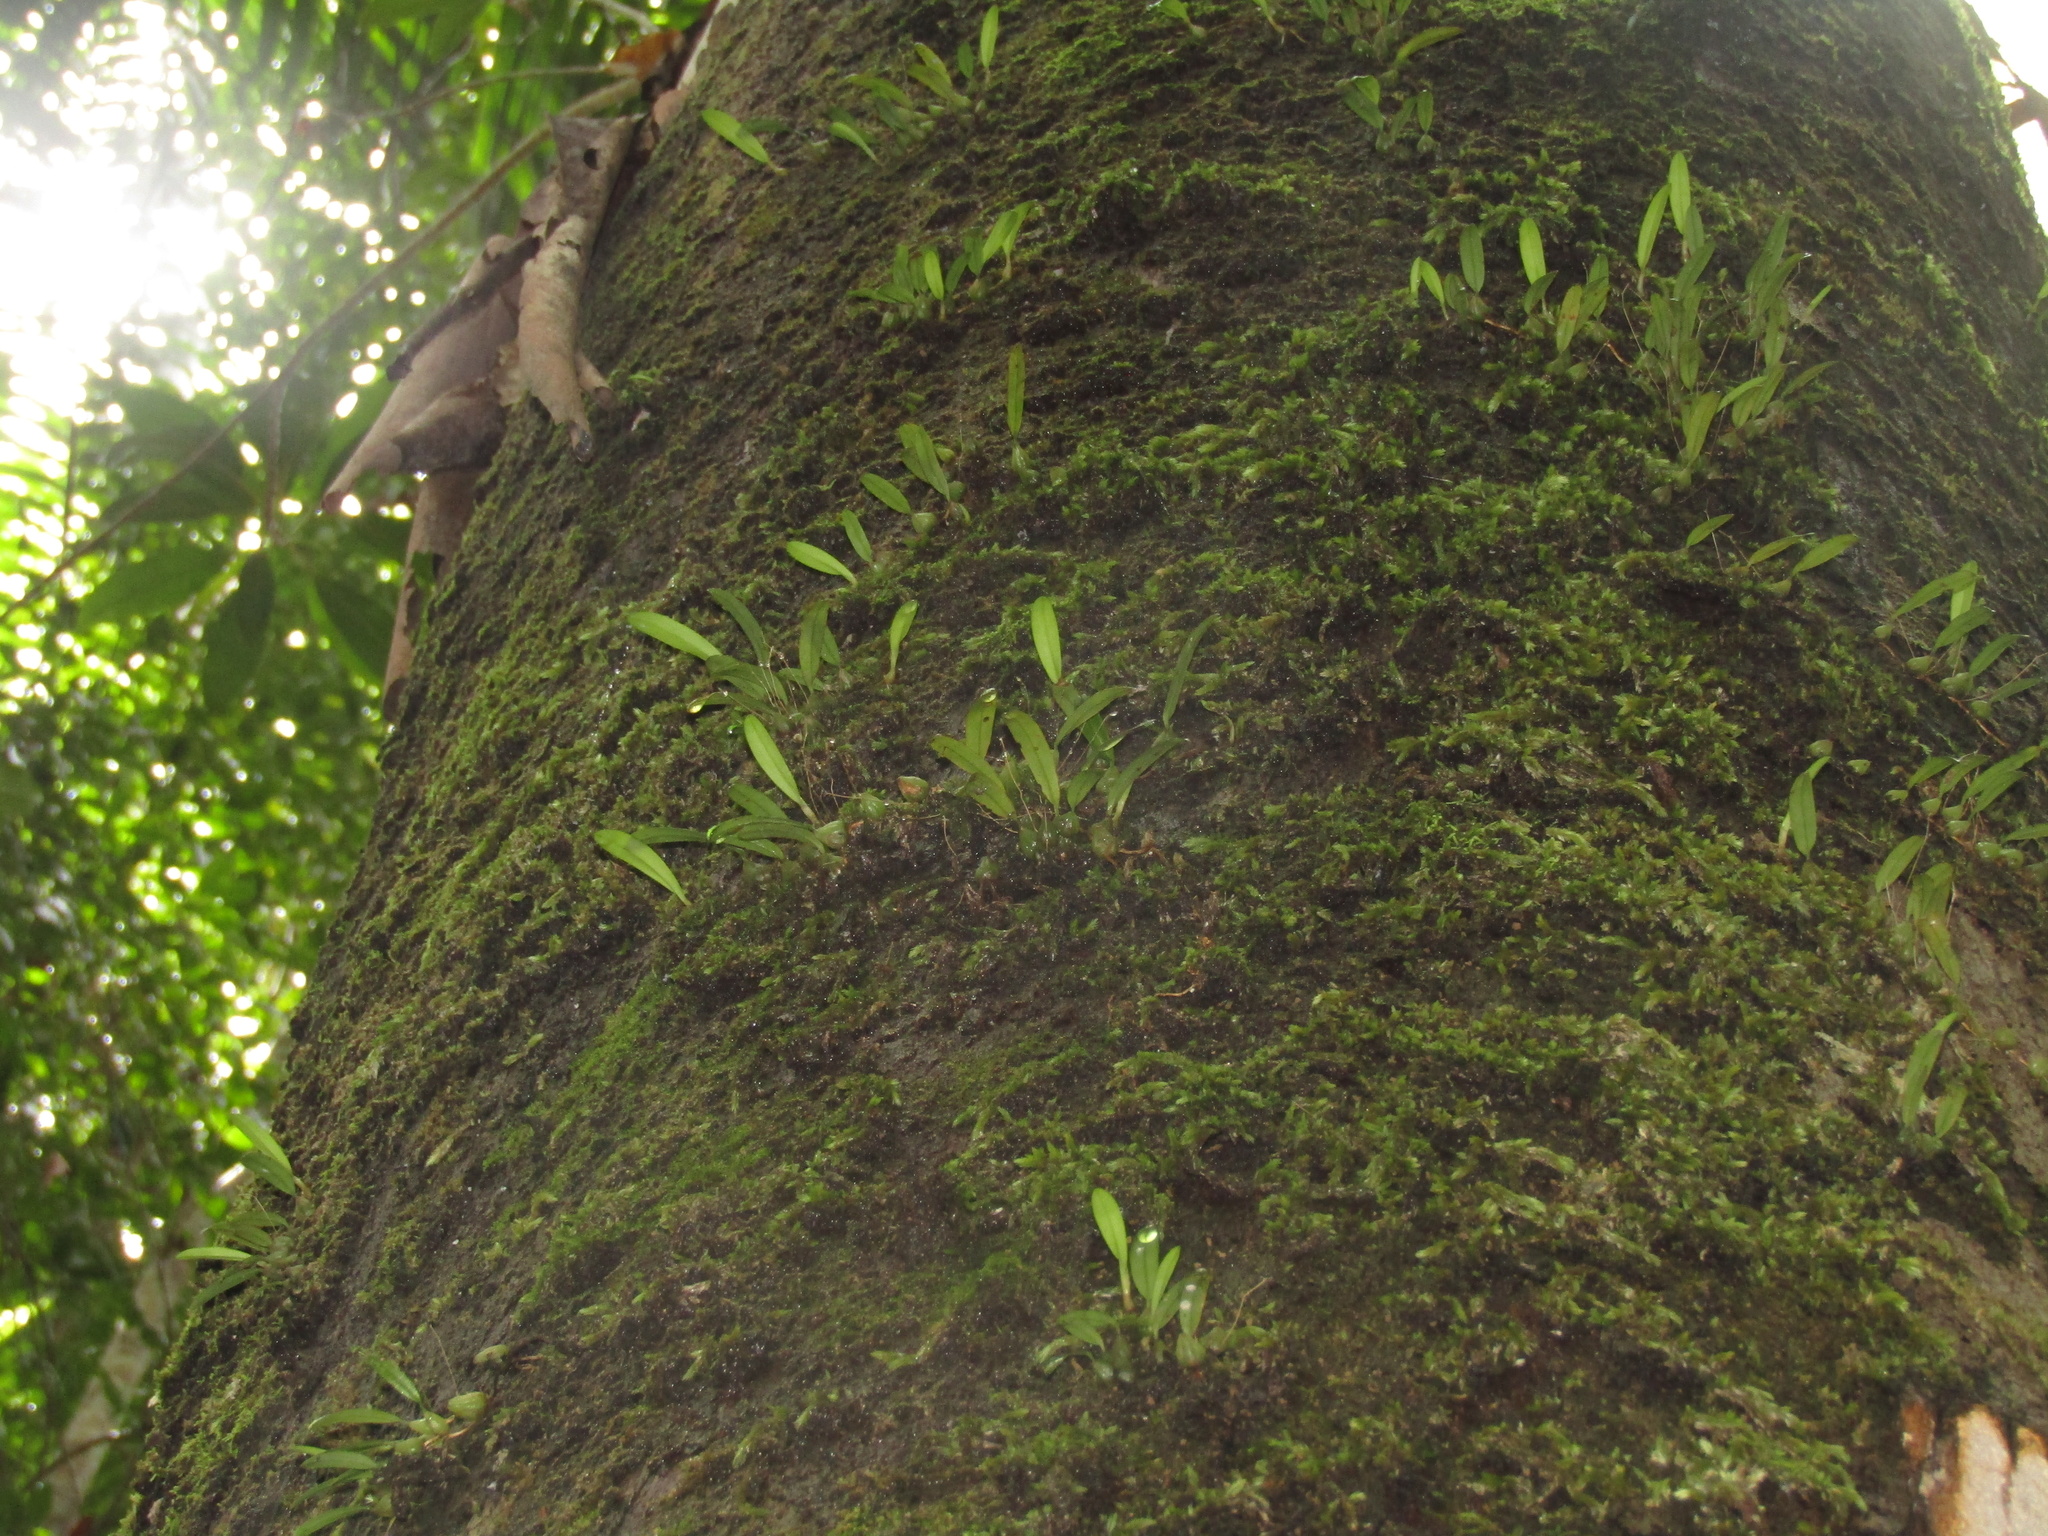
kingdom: Plantae
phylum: Tracheophyta
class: Liliopsida
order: Asparagales
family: Orchidaceae
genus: Bulbophyllum
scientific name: Bulbophyllum exiguum
